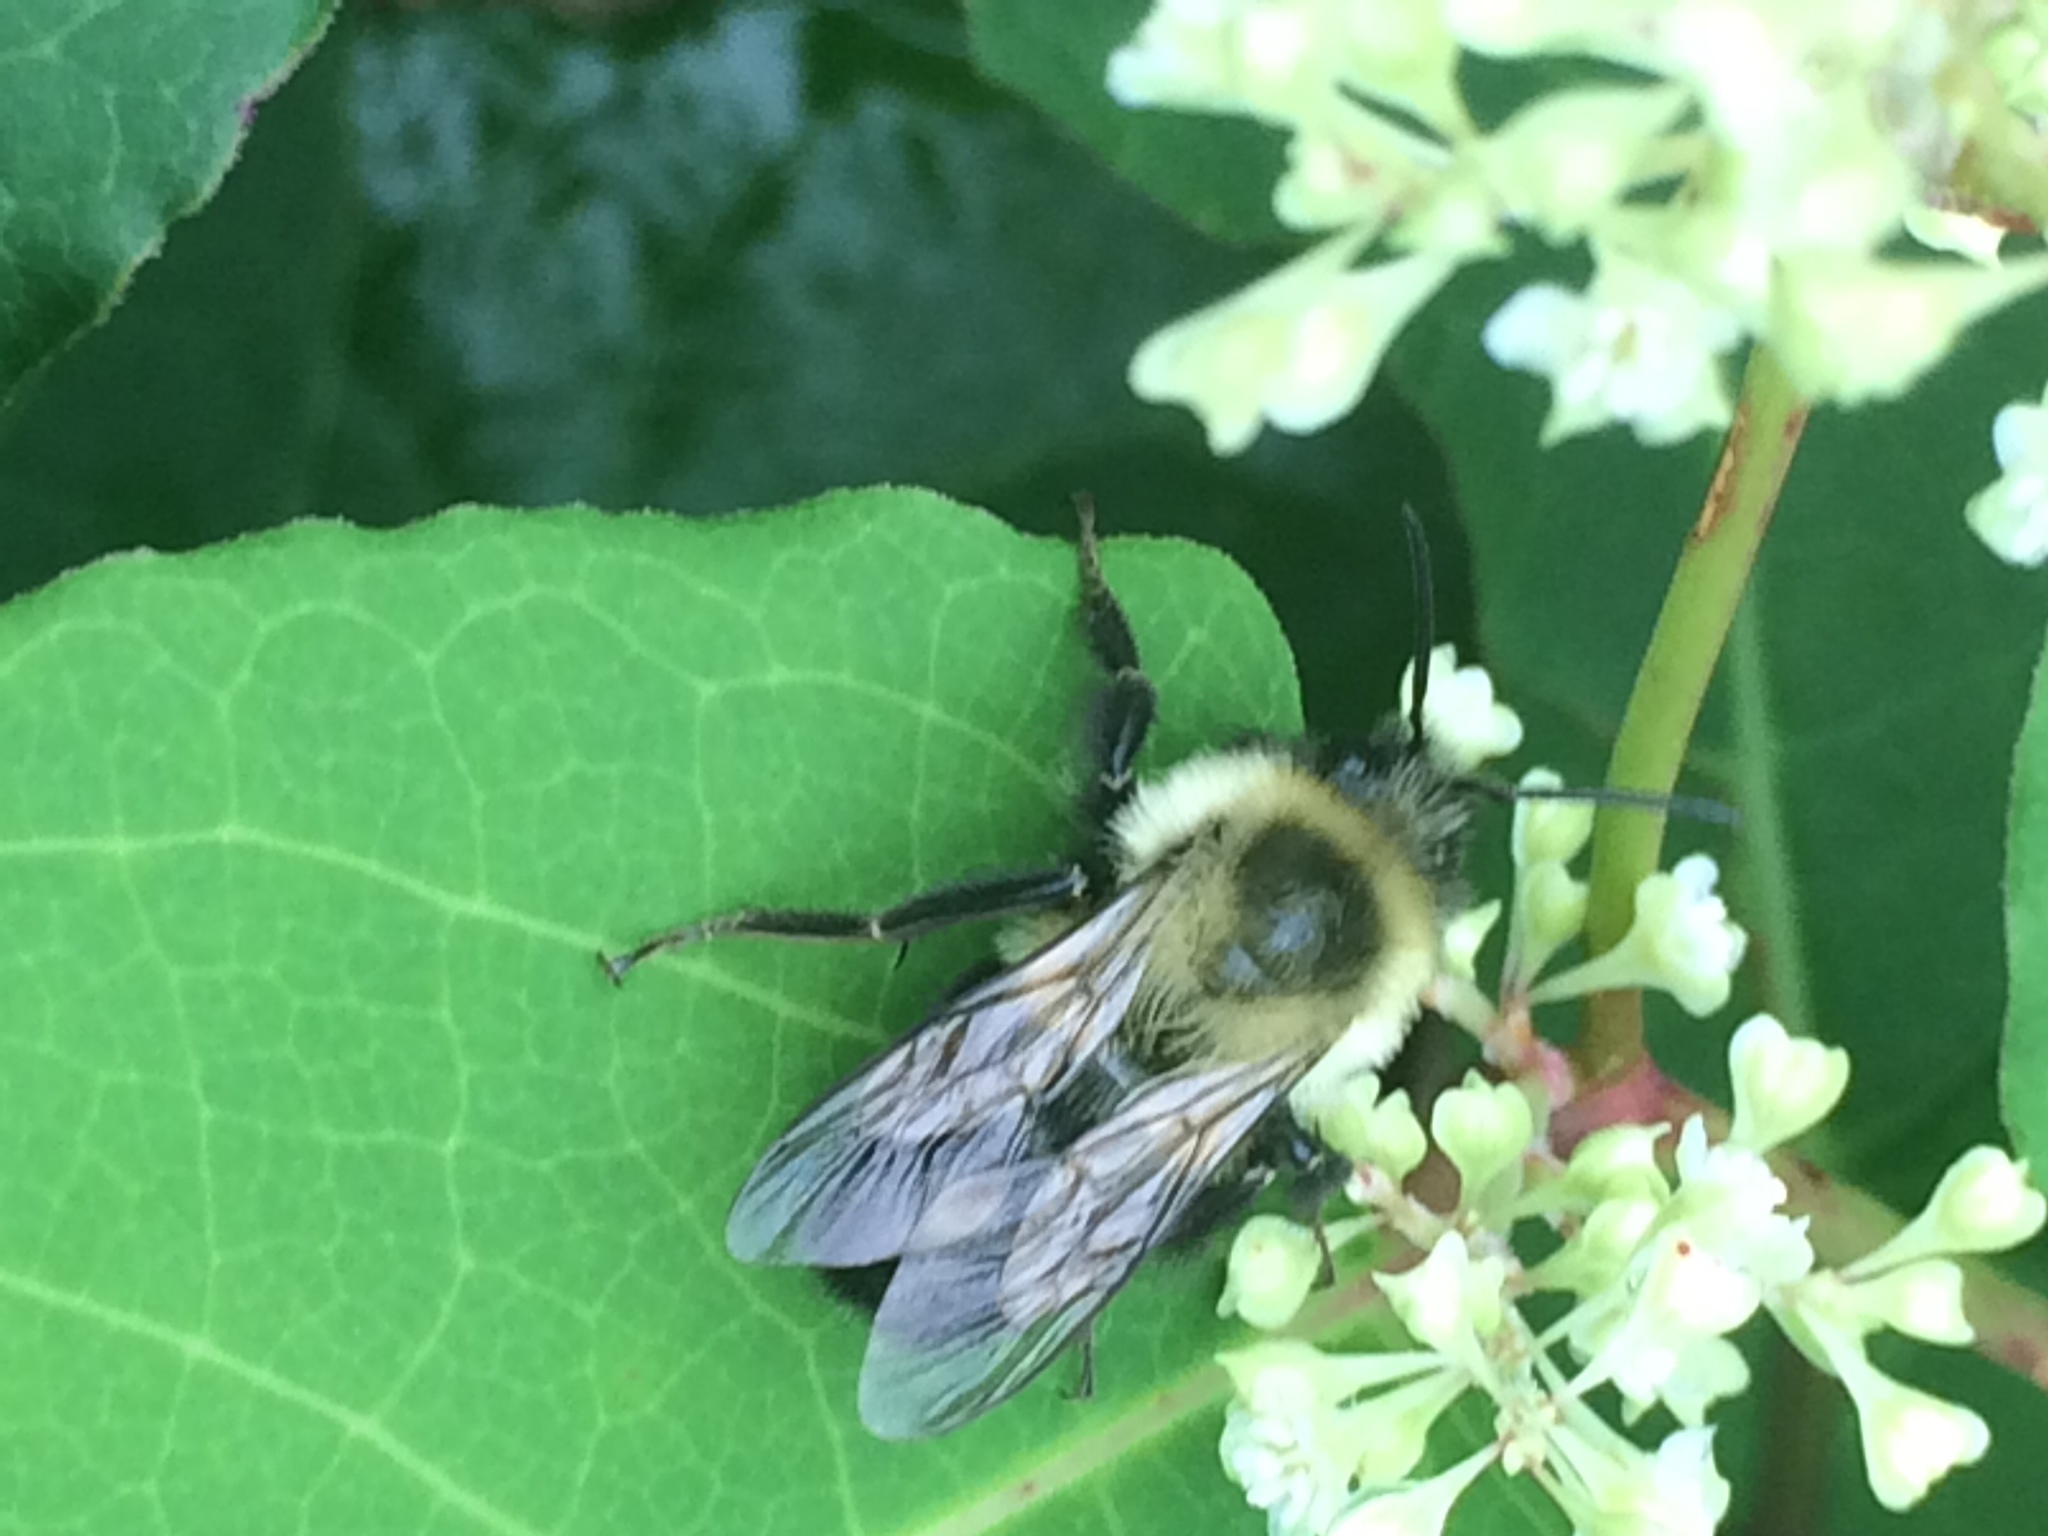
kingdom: Animalia
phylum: Arthropoda
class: Insecta
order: Hymenoptera
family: Apidae
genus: Bombus
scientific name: Bombus impatiens
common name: Common eastern bumble bee
